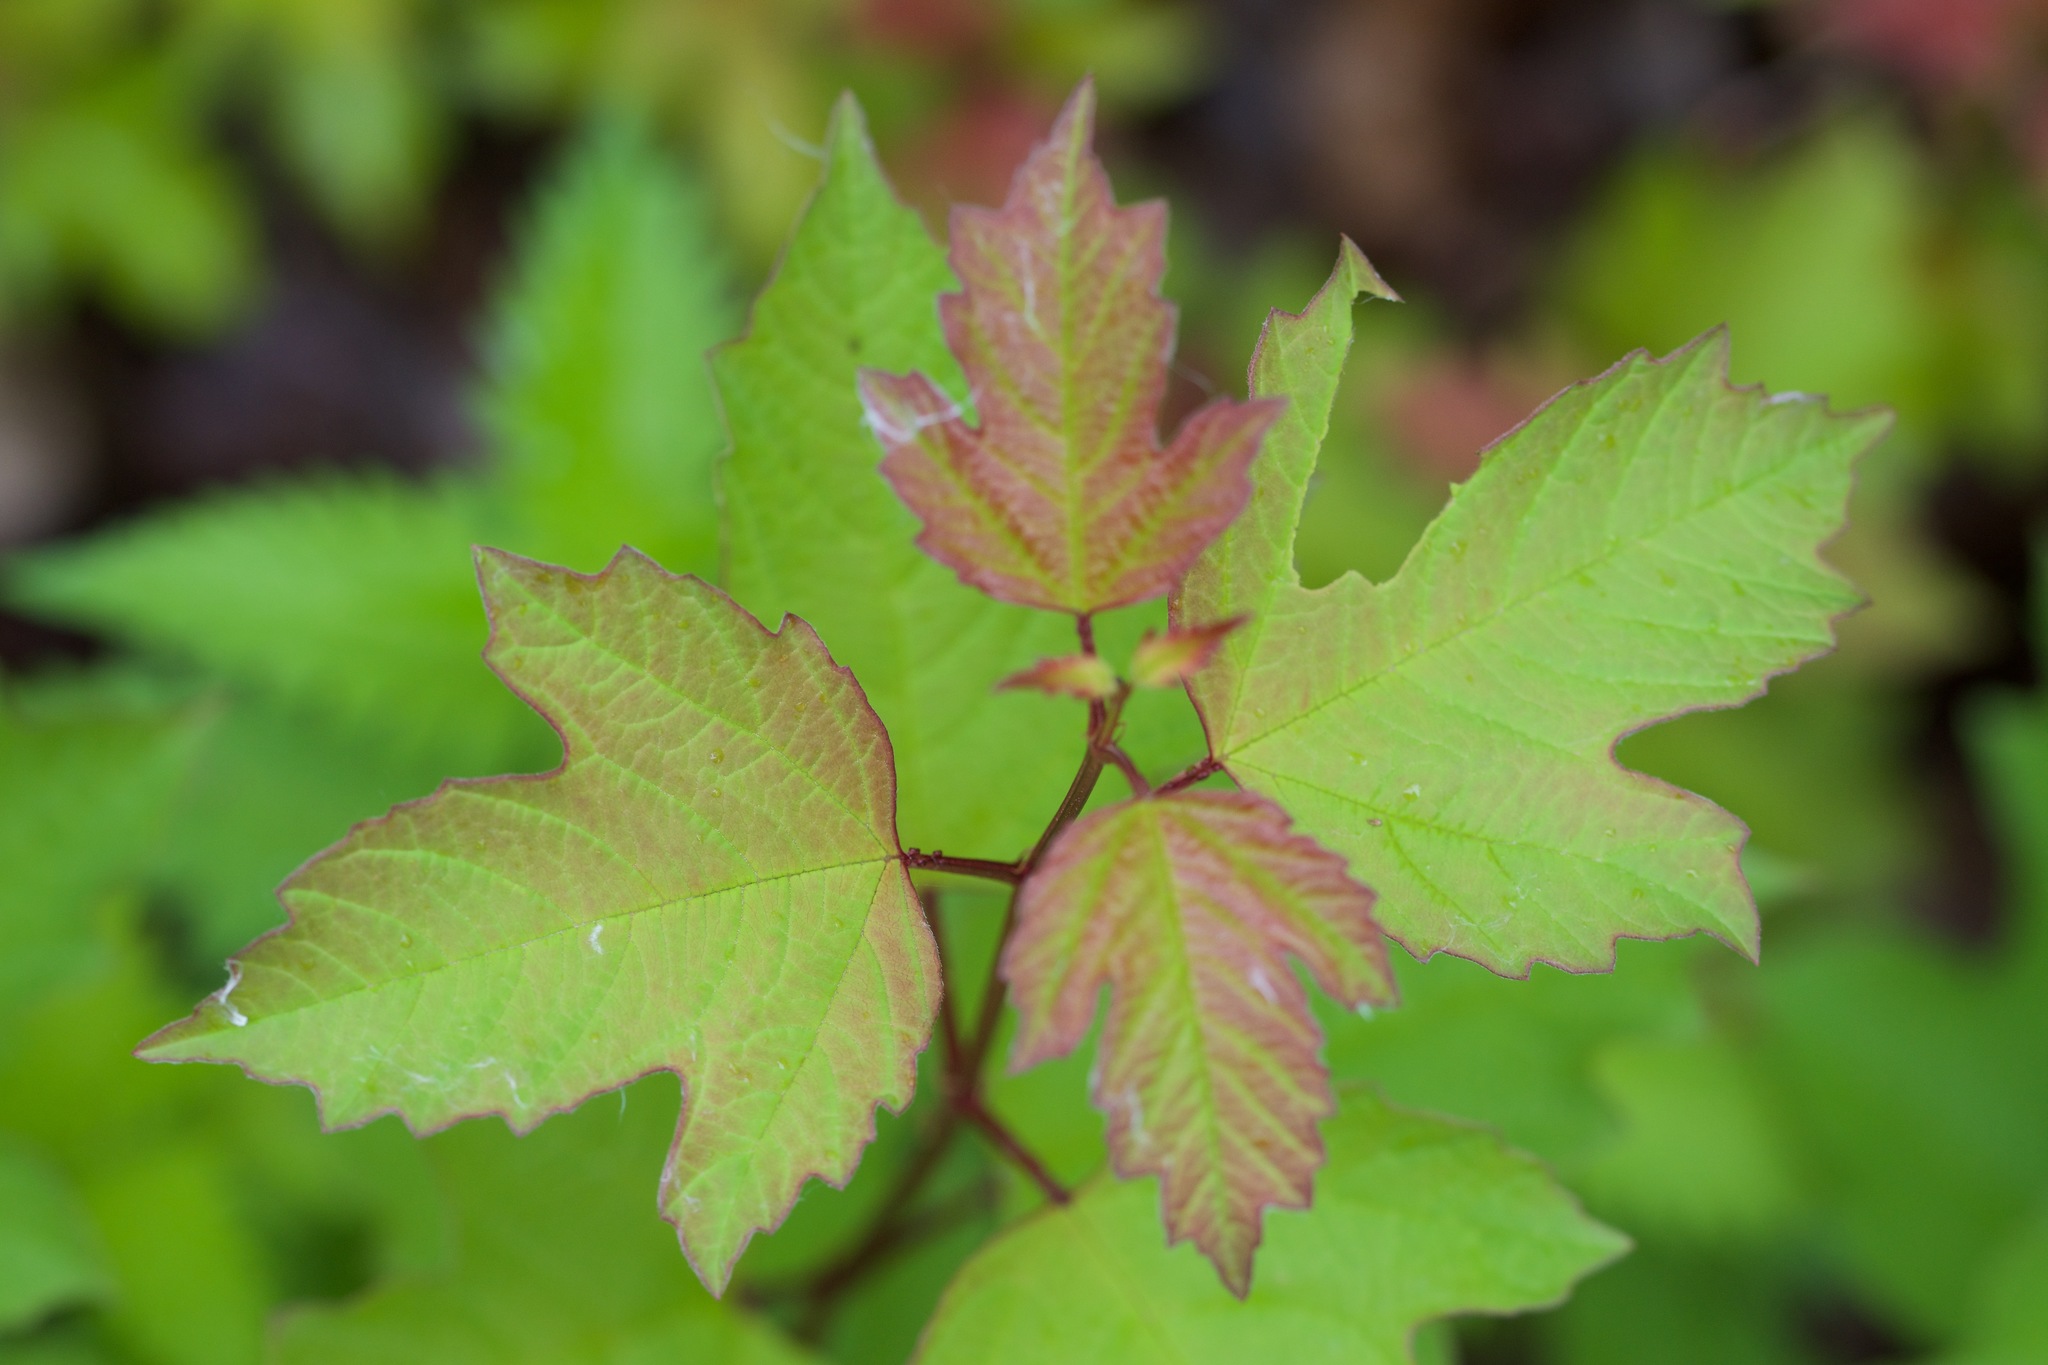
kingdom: Plantae
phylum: Tracheophyta
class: Magnoliopsida
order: Dipsacales
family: Viburnaceae
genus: Viburnum
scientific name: Viburnum opulus
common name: Guelder-rose
